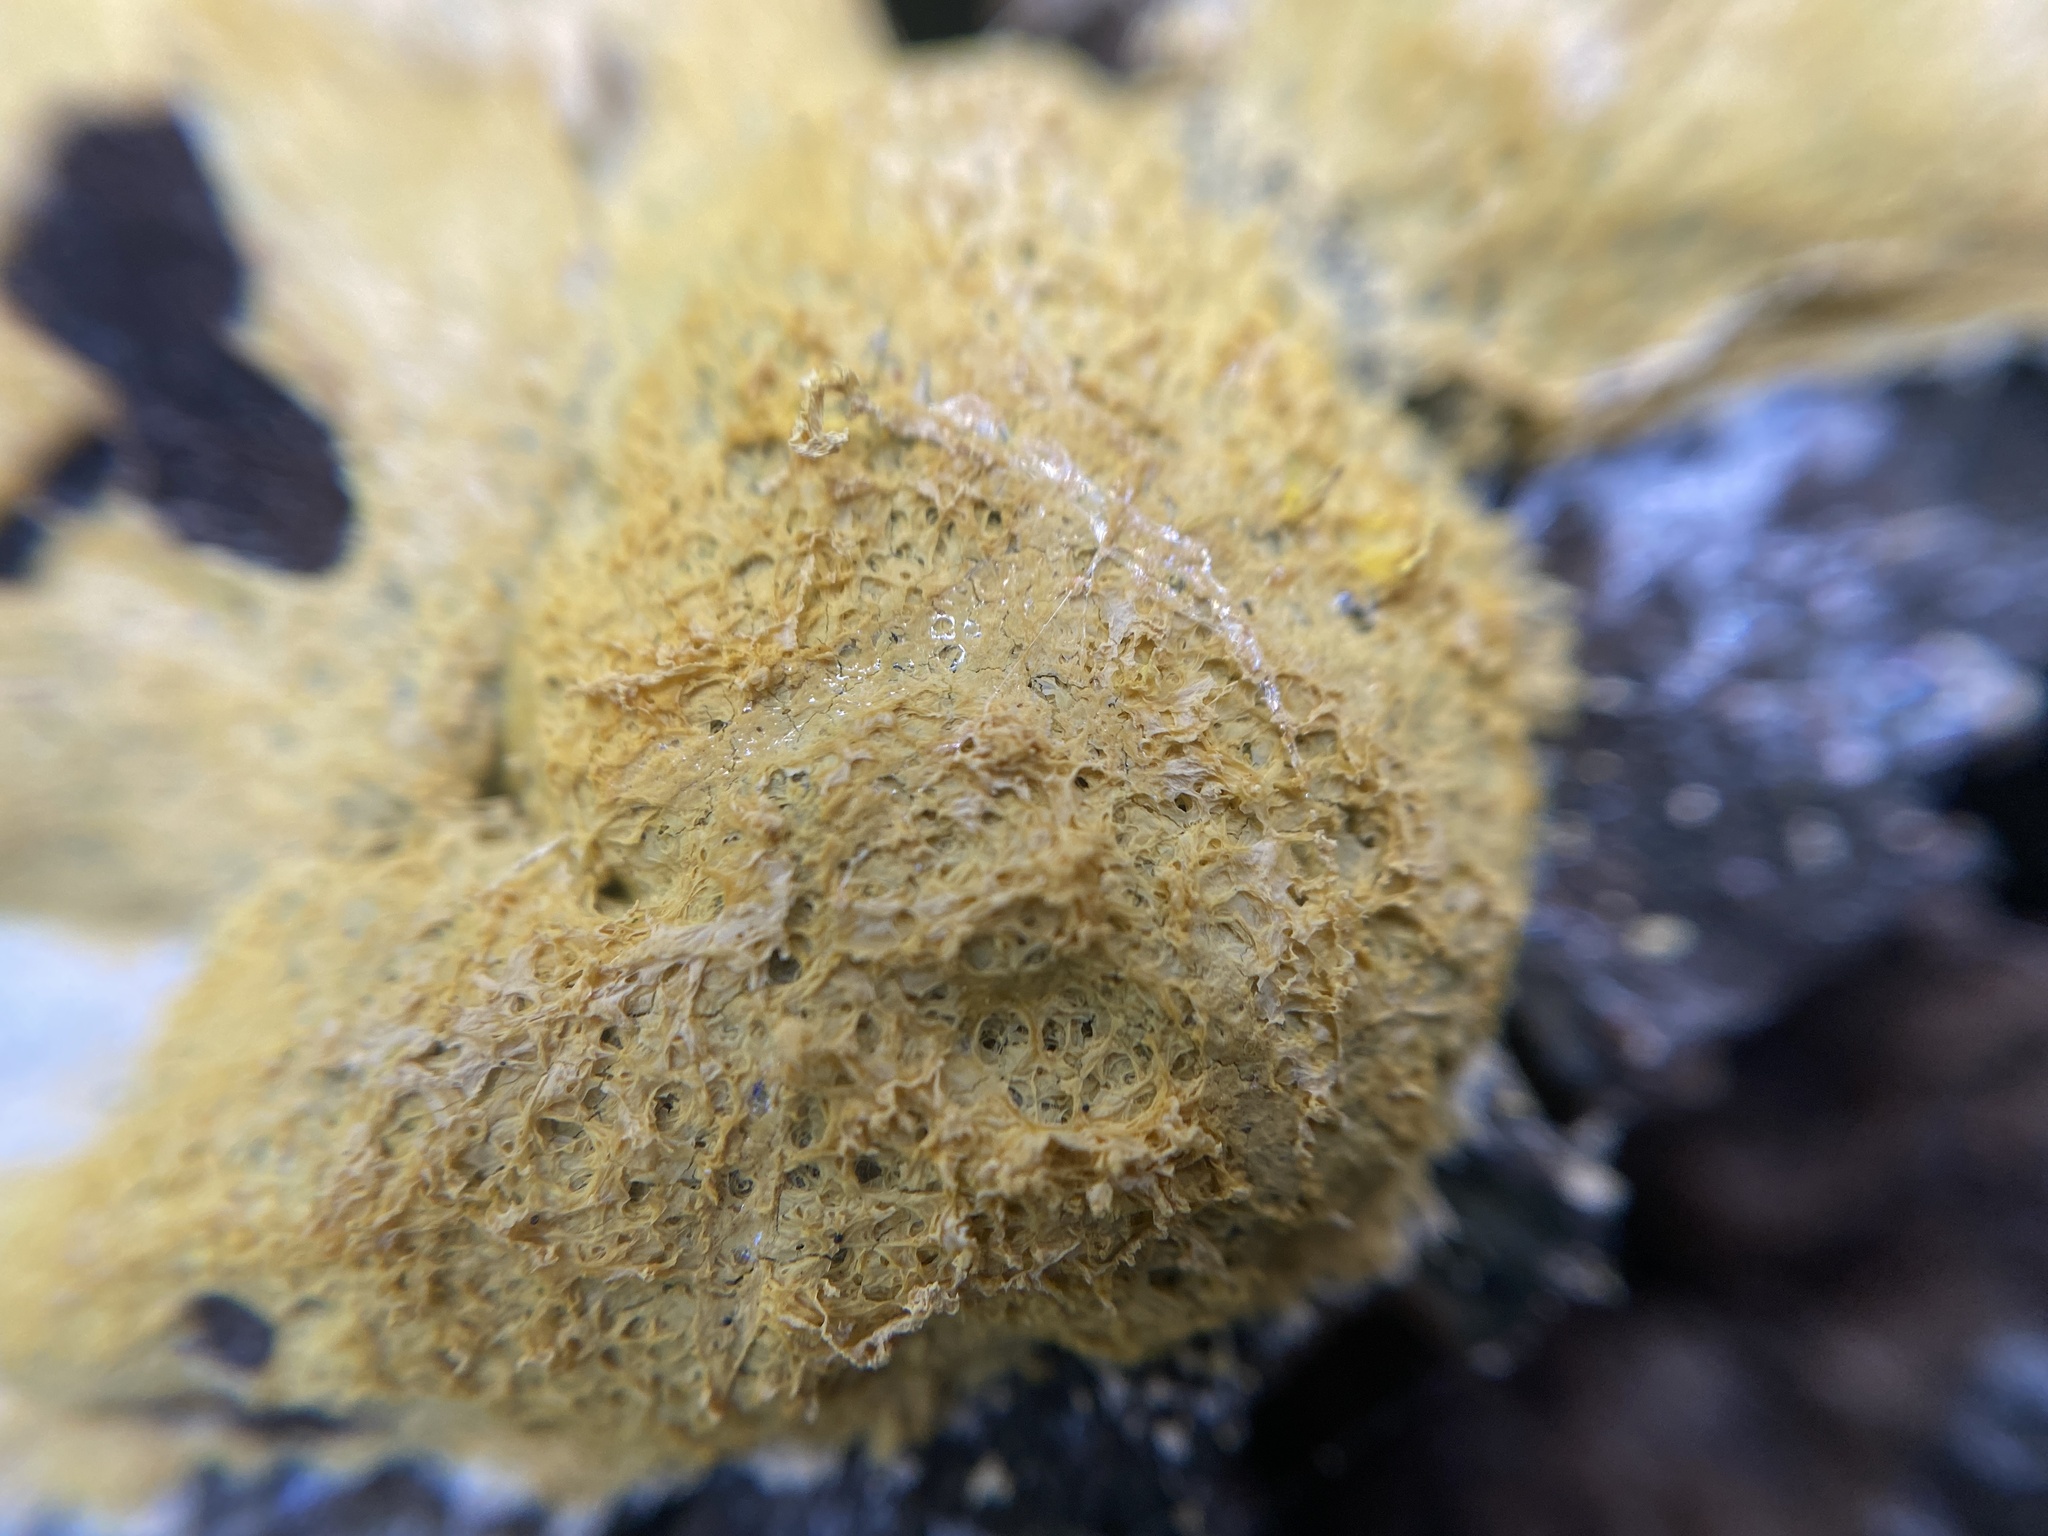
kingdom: Protozoa
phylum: Mycetozoa
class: Myxomycetes
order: Physarales
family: Physaraceae
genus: Fuligo
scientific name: Fuligo septica
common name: Dog vomit slime mold
